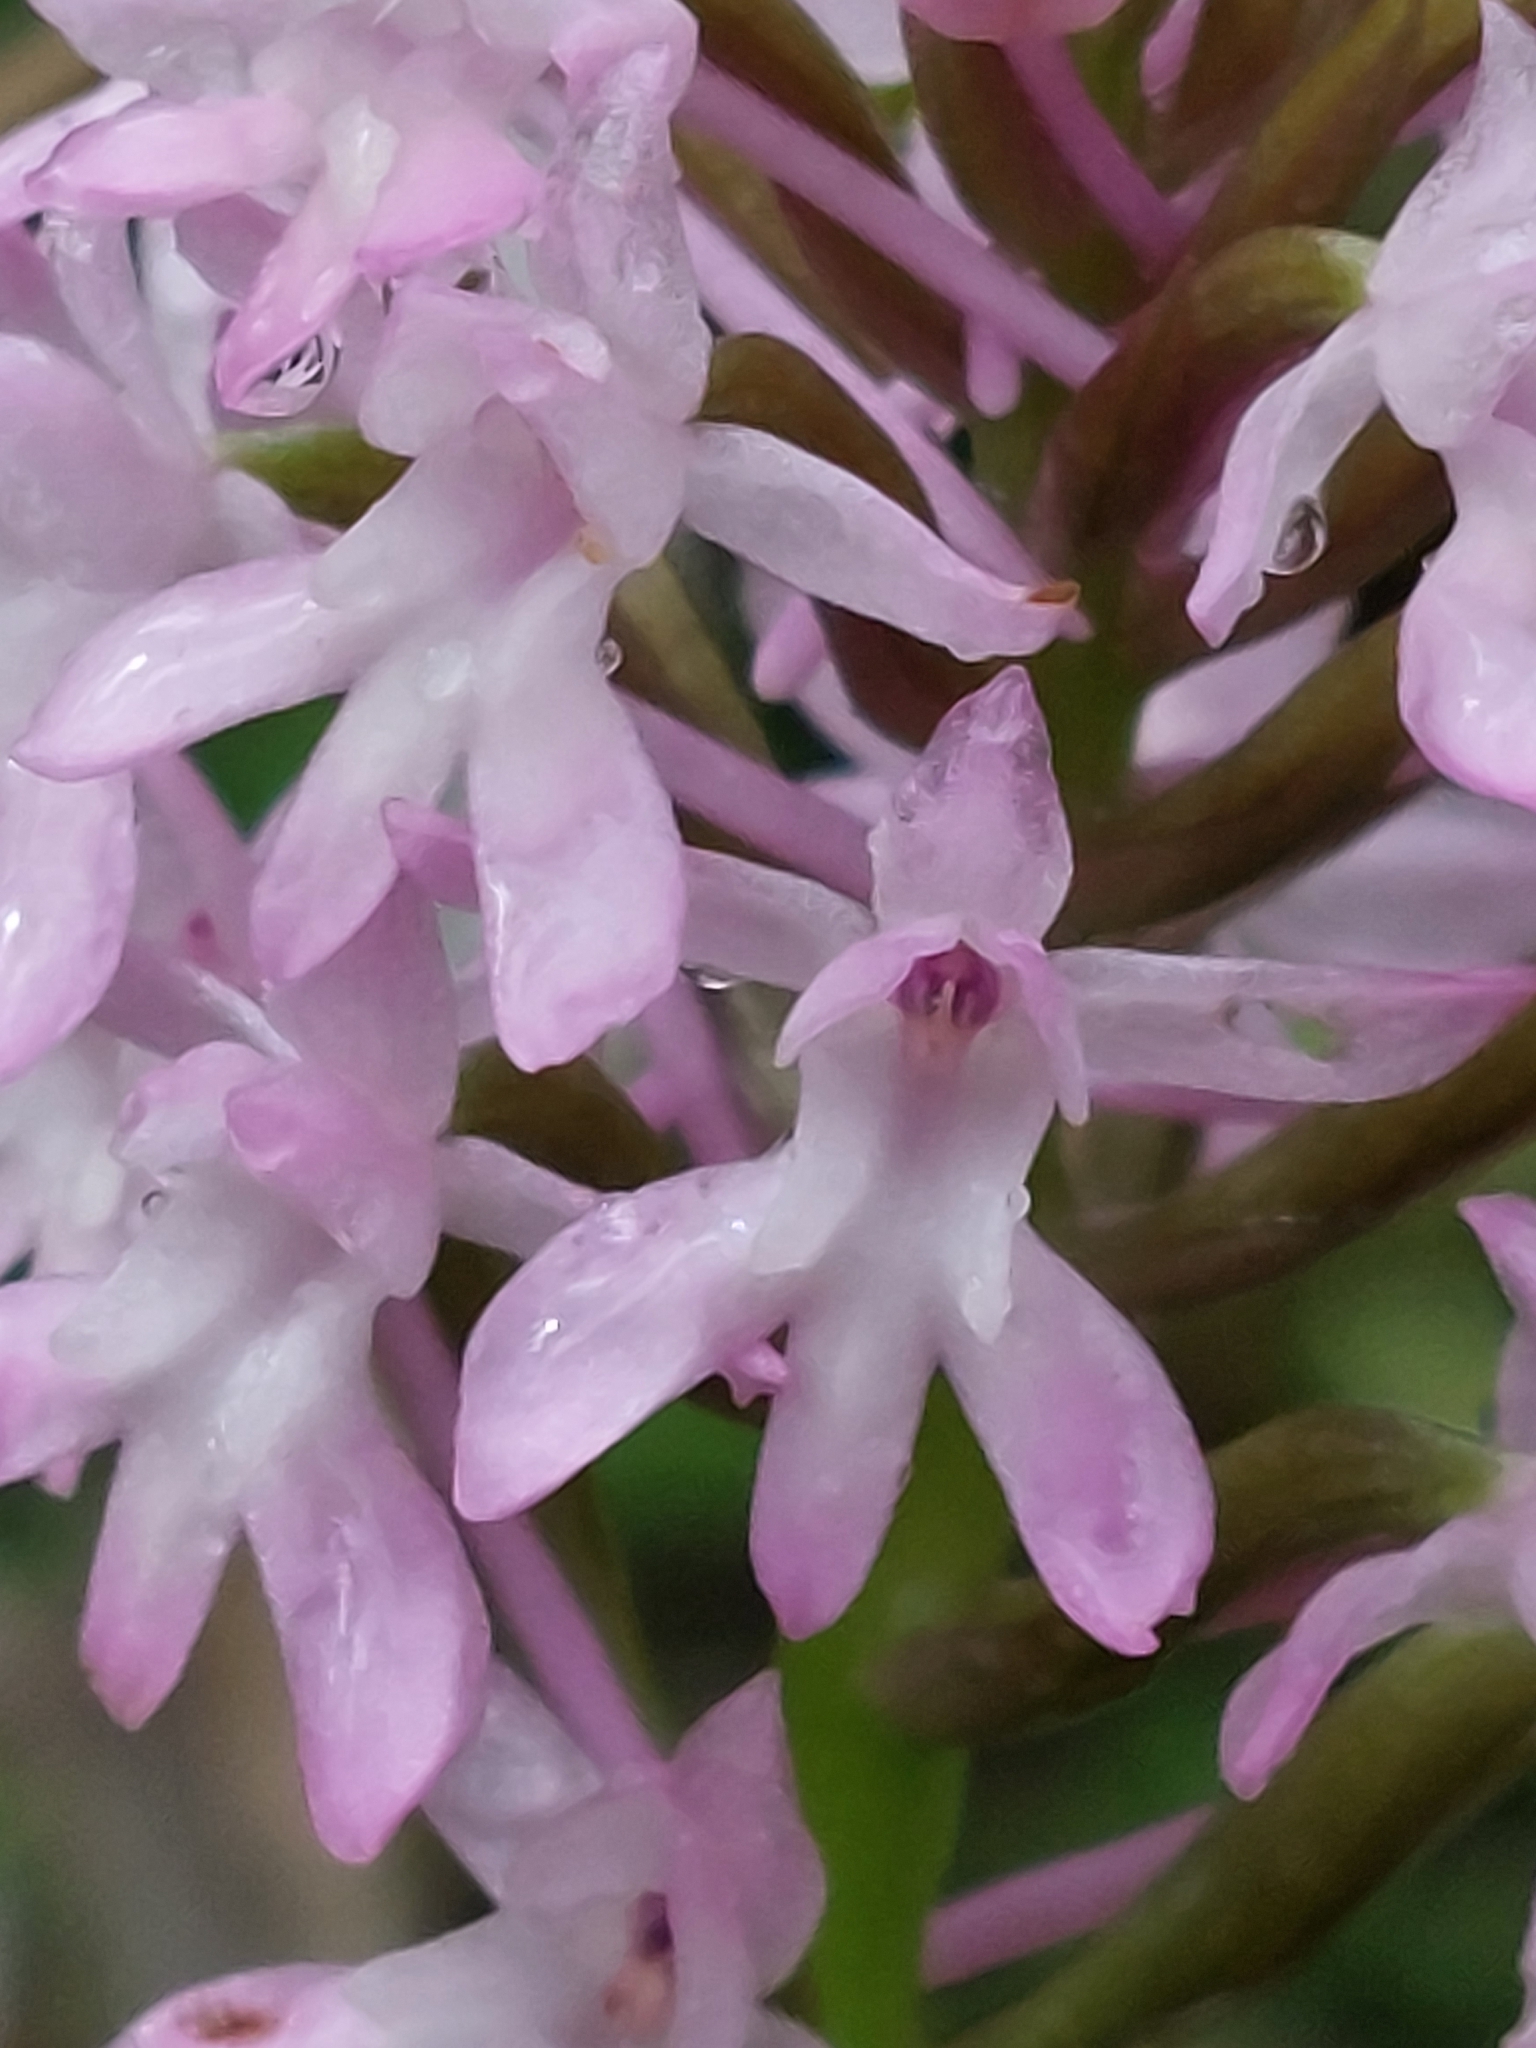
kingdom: Plantae
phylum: Tracheophyta
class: Liliopsida
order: Asparagales
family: Orchidaceae
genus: Anacamptis
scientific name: Anacamptis pyramidalis
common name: Pyramidal orchid
